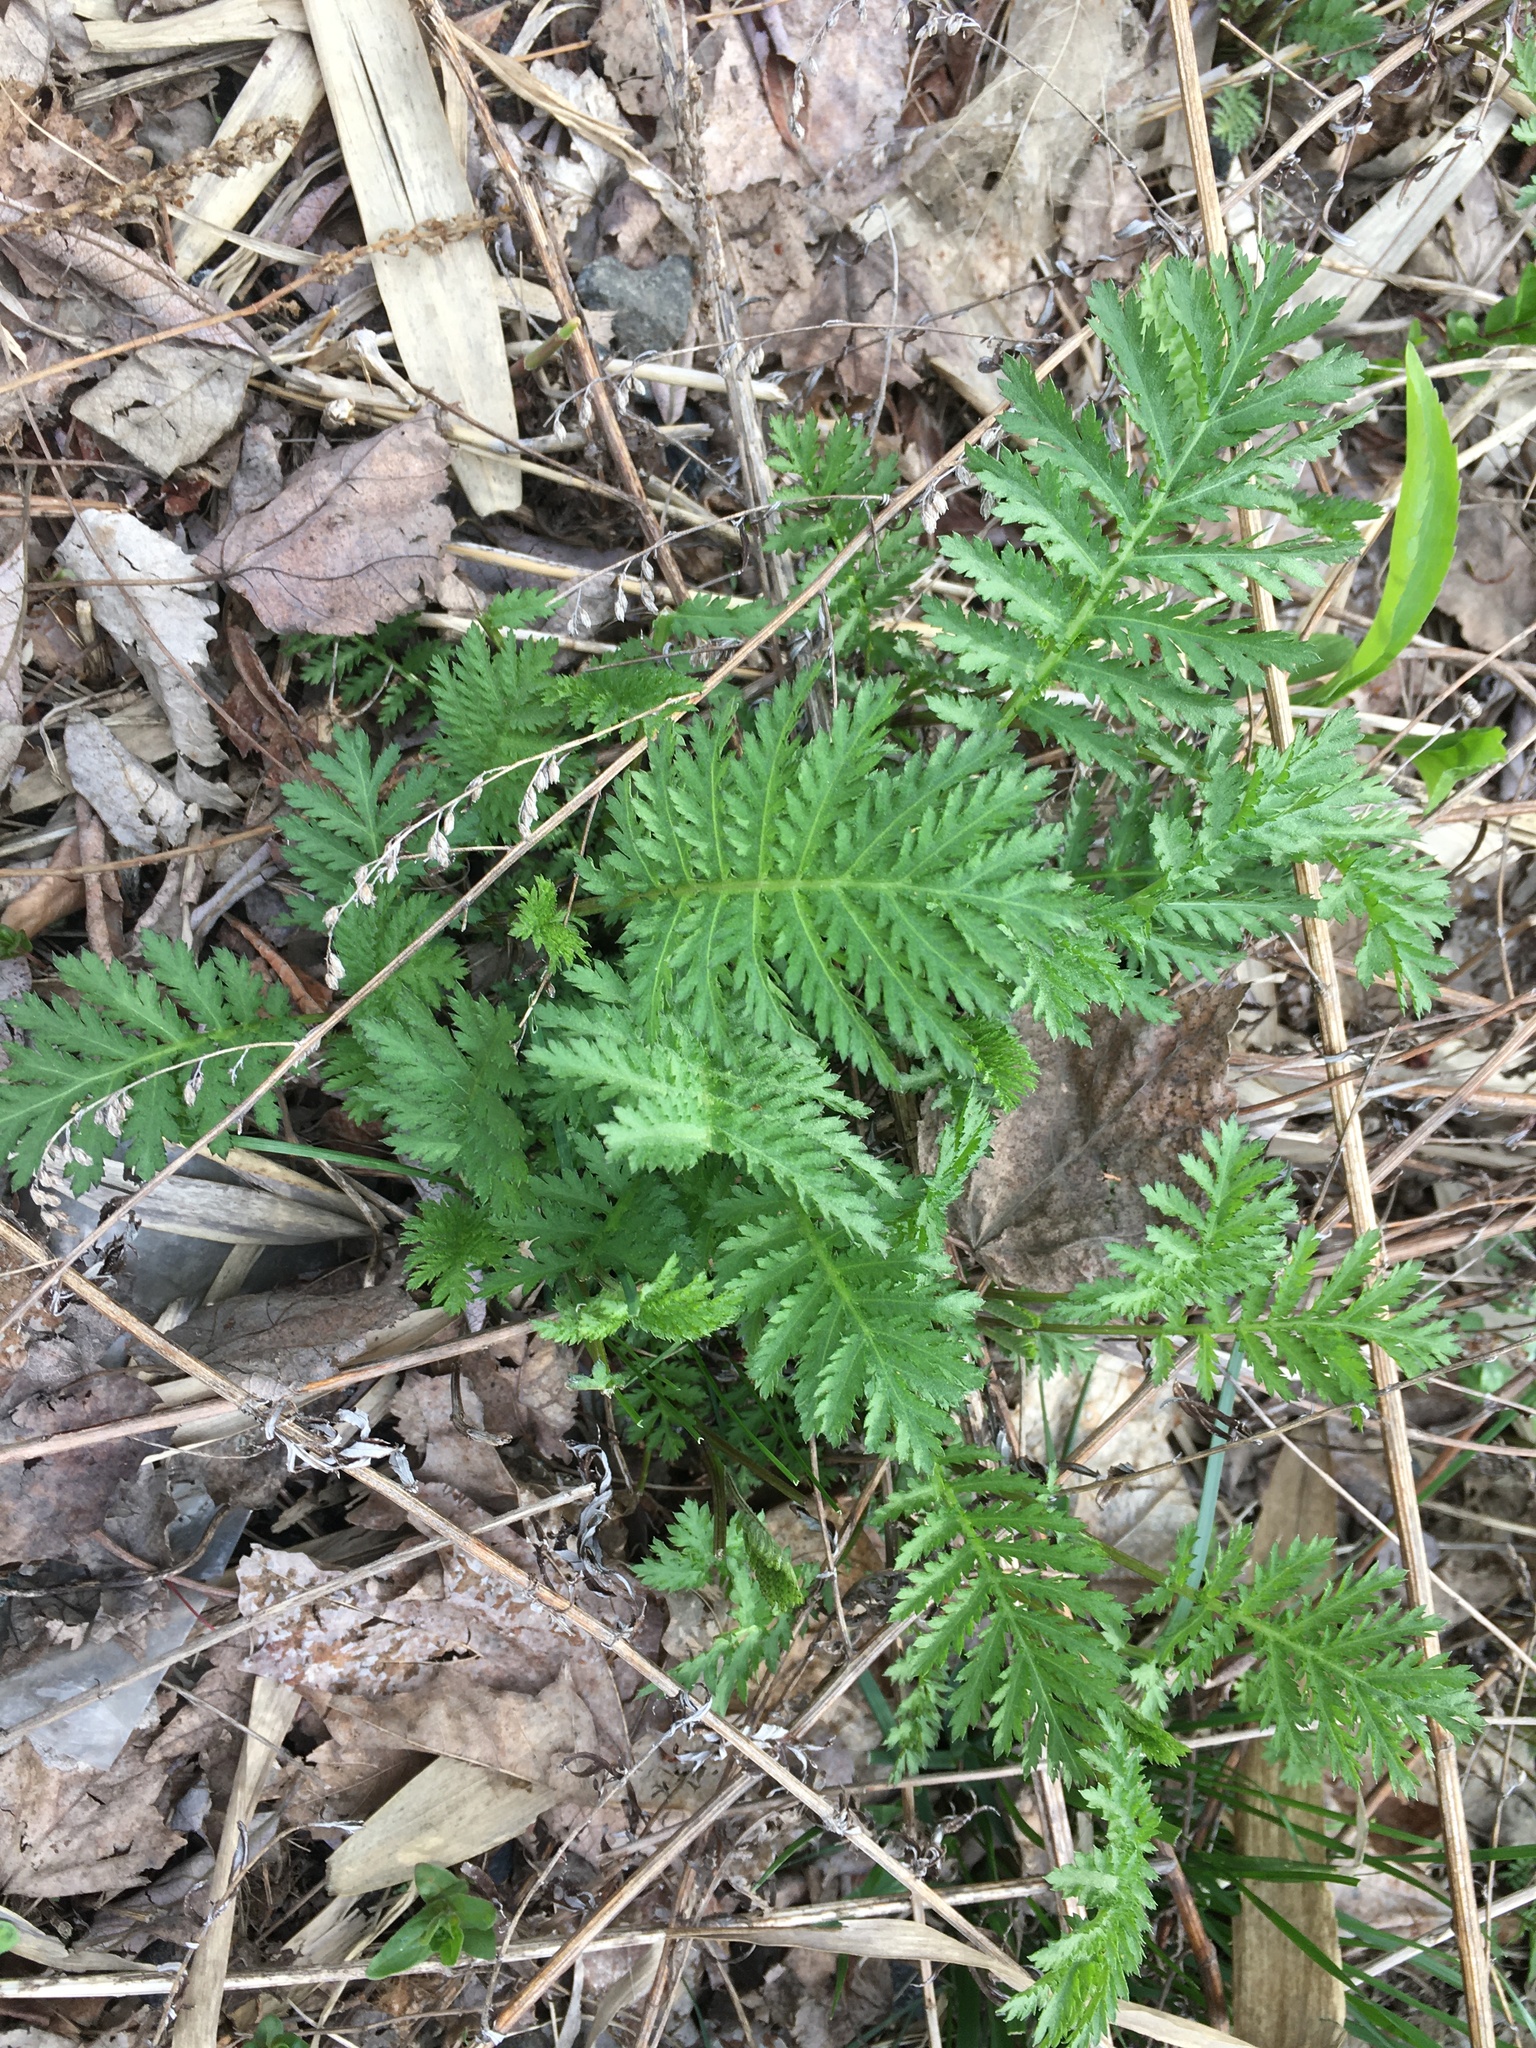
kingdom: Plantae
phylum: Tracheophyta
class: Magnoliopsida
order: Asterales
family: Asteraceae
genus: Tanacetum
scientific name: Tanacetum vulgare
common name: Common tansy
